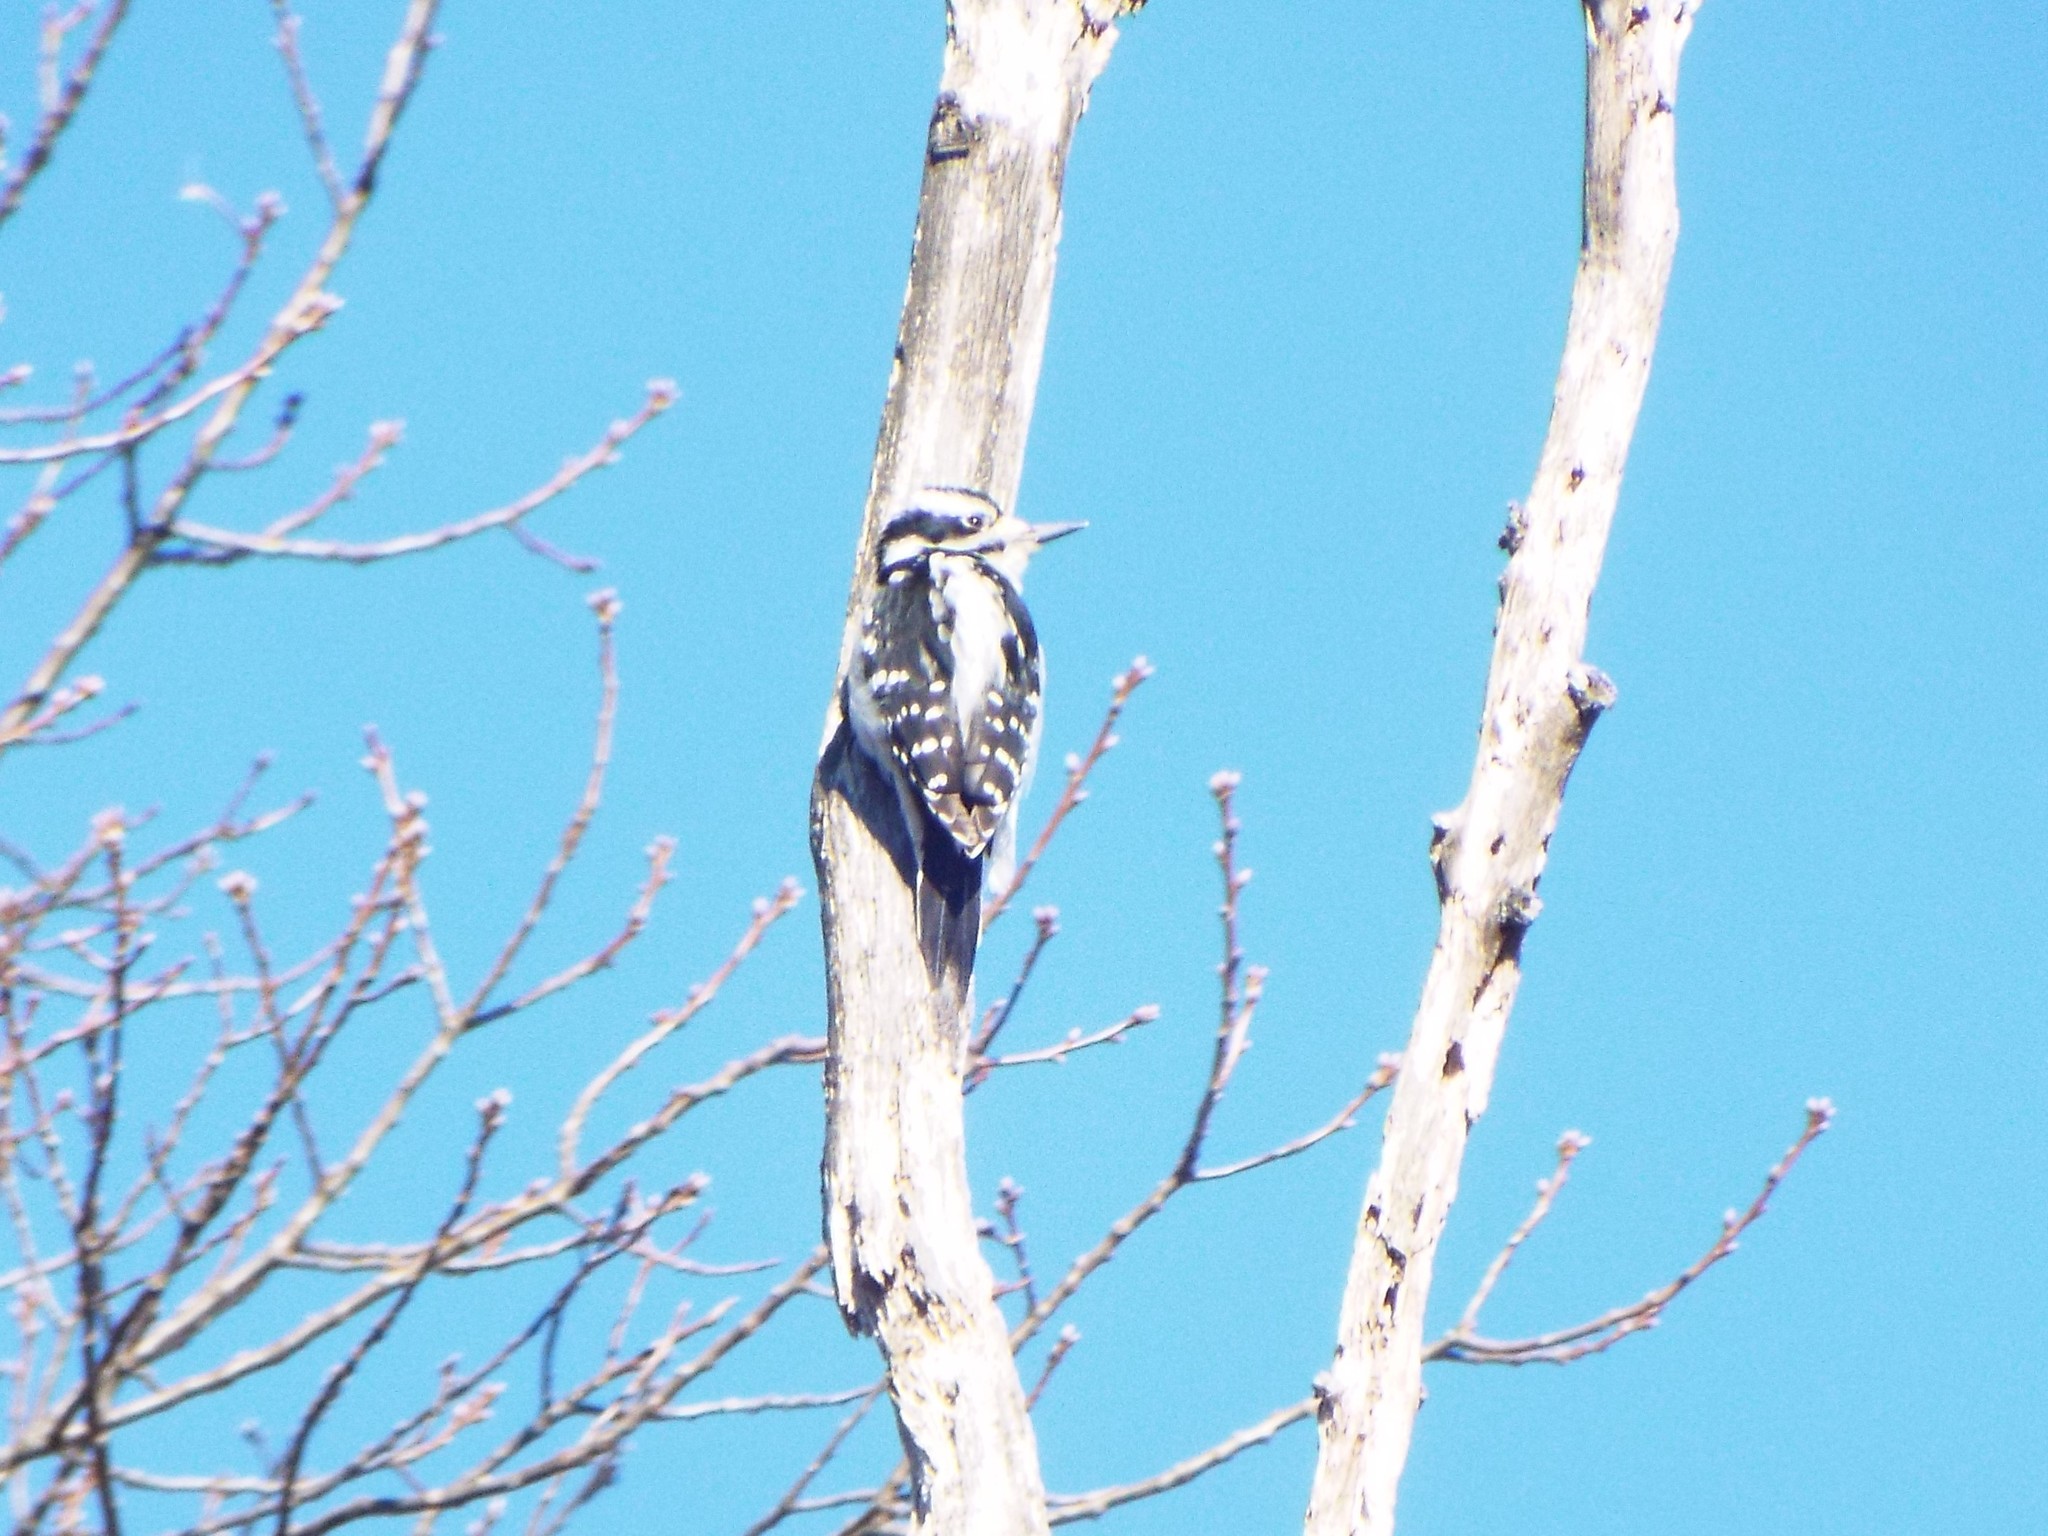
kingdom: Animalia
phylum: Chordata
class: Aves
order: Piciformes
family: Picidae
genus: Leuconotopicus
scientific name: Leuconotopicus villosus
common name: Hairy woodpecker
